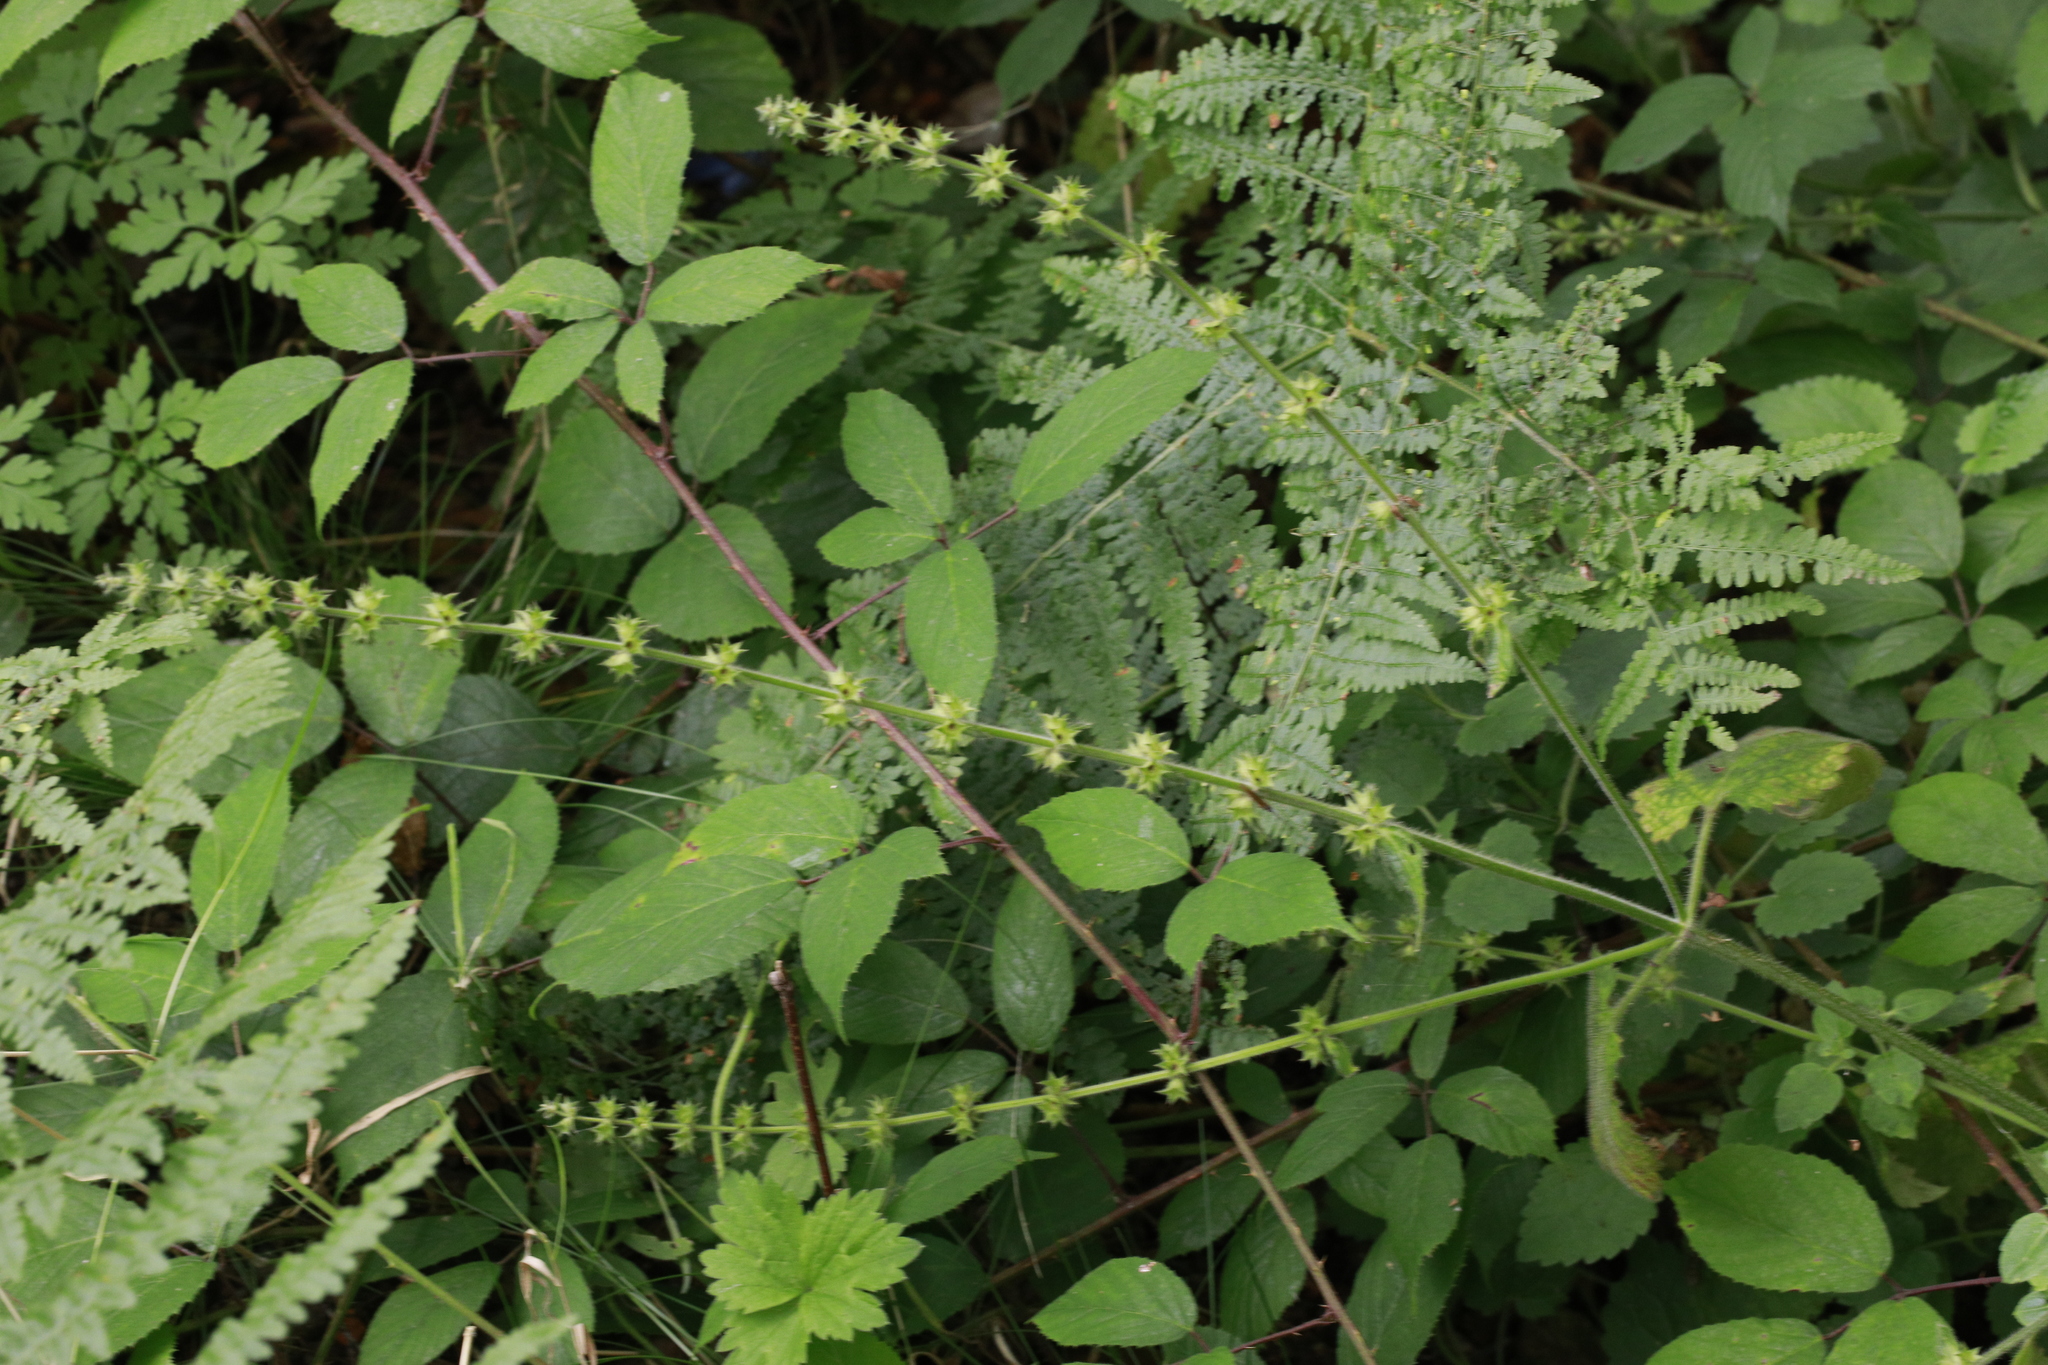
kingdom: Plantae
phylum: Tracheophyta
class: Magnoliopsida
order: Lamiales
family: Lamiaceae
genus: Stachys
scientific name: Stachys sylvatica
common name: Hedge woundwort
